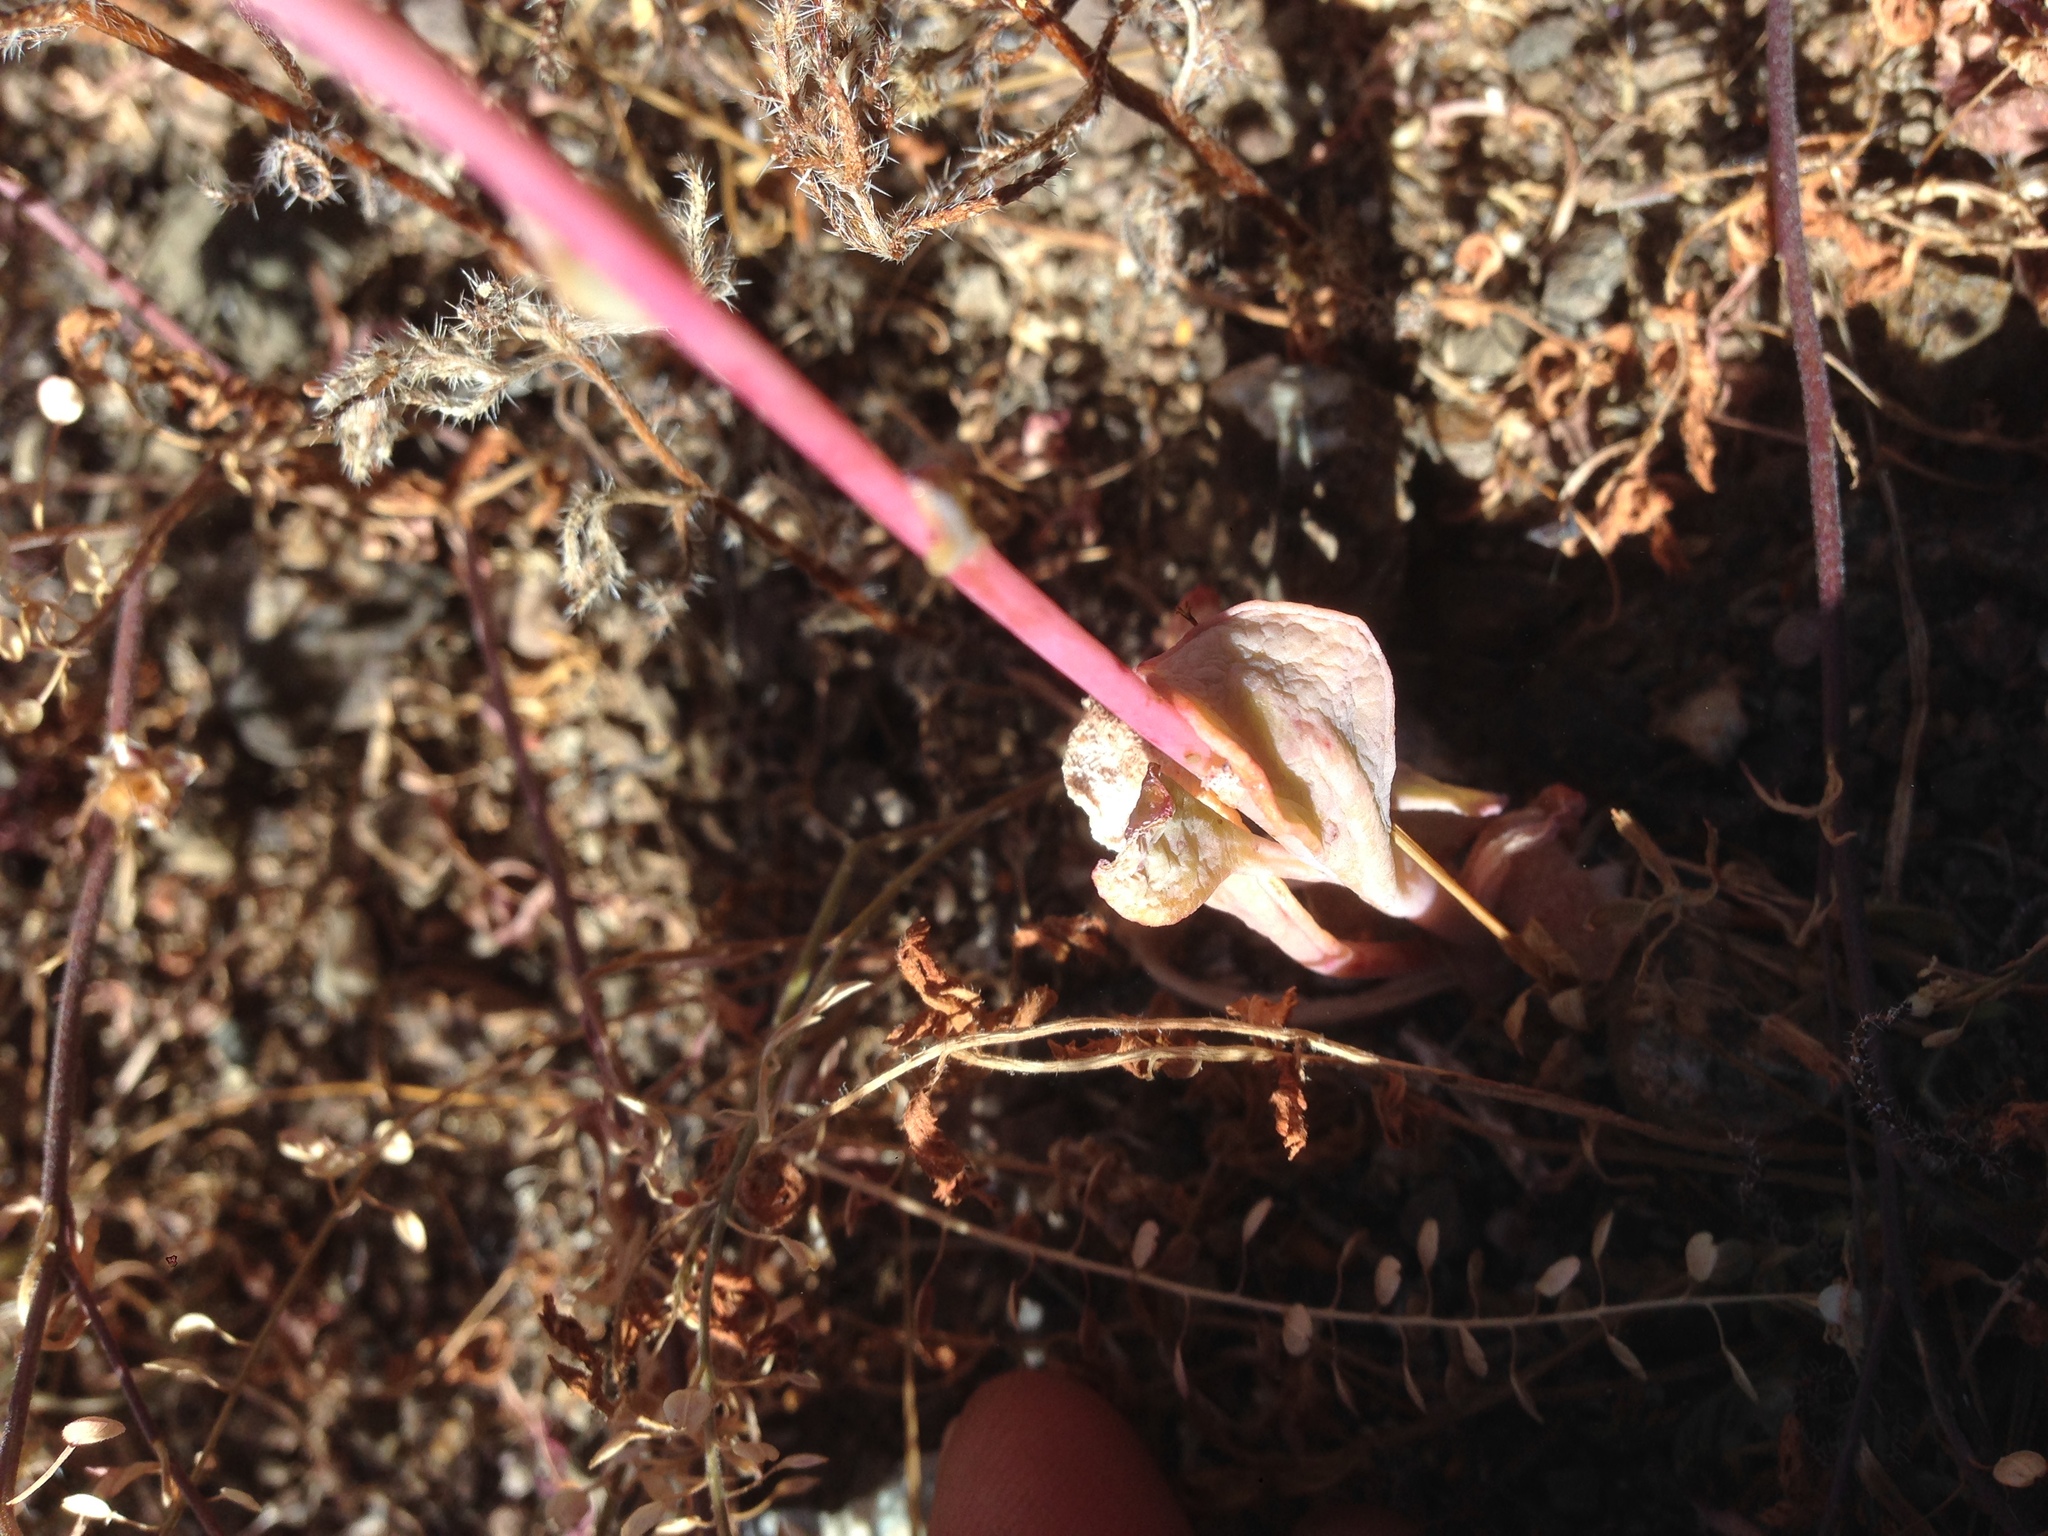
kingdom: Plantae
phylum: Tracheophyta
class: Magnoliopsida
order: Caryophyllales
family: Montiaceae
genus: Cistanthe
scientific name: Cistanthe maritima
